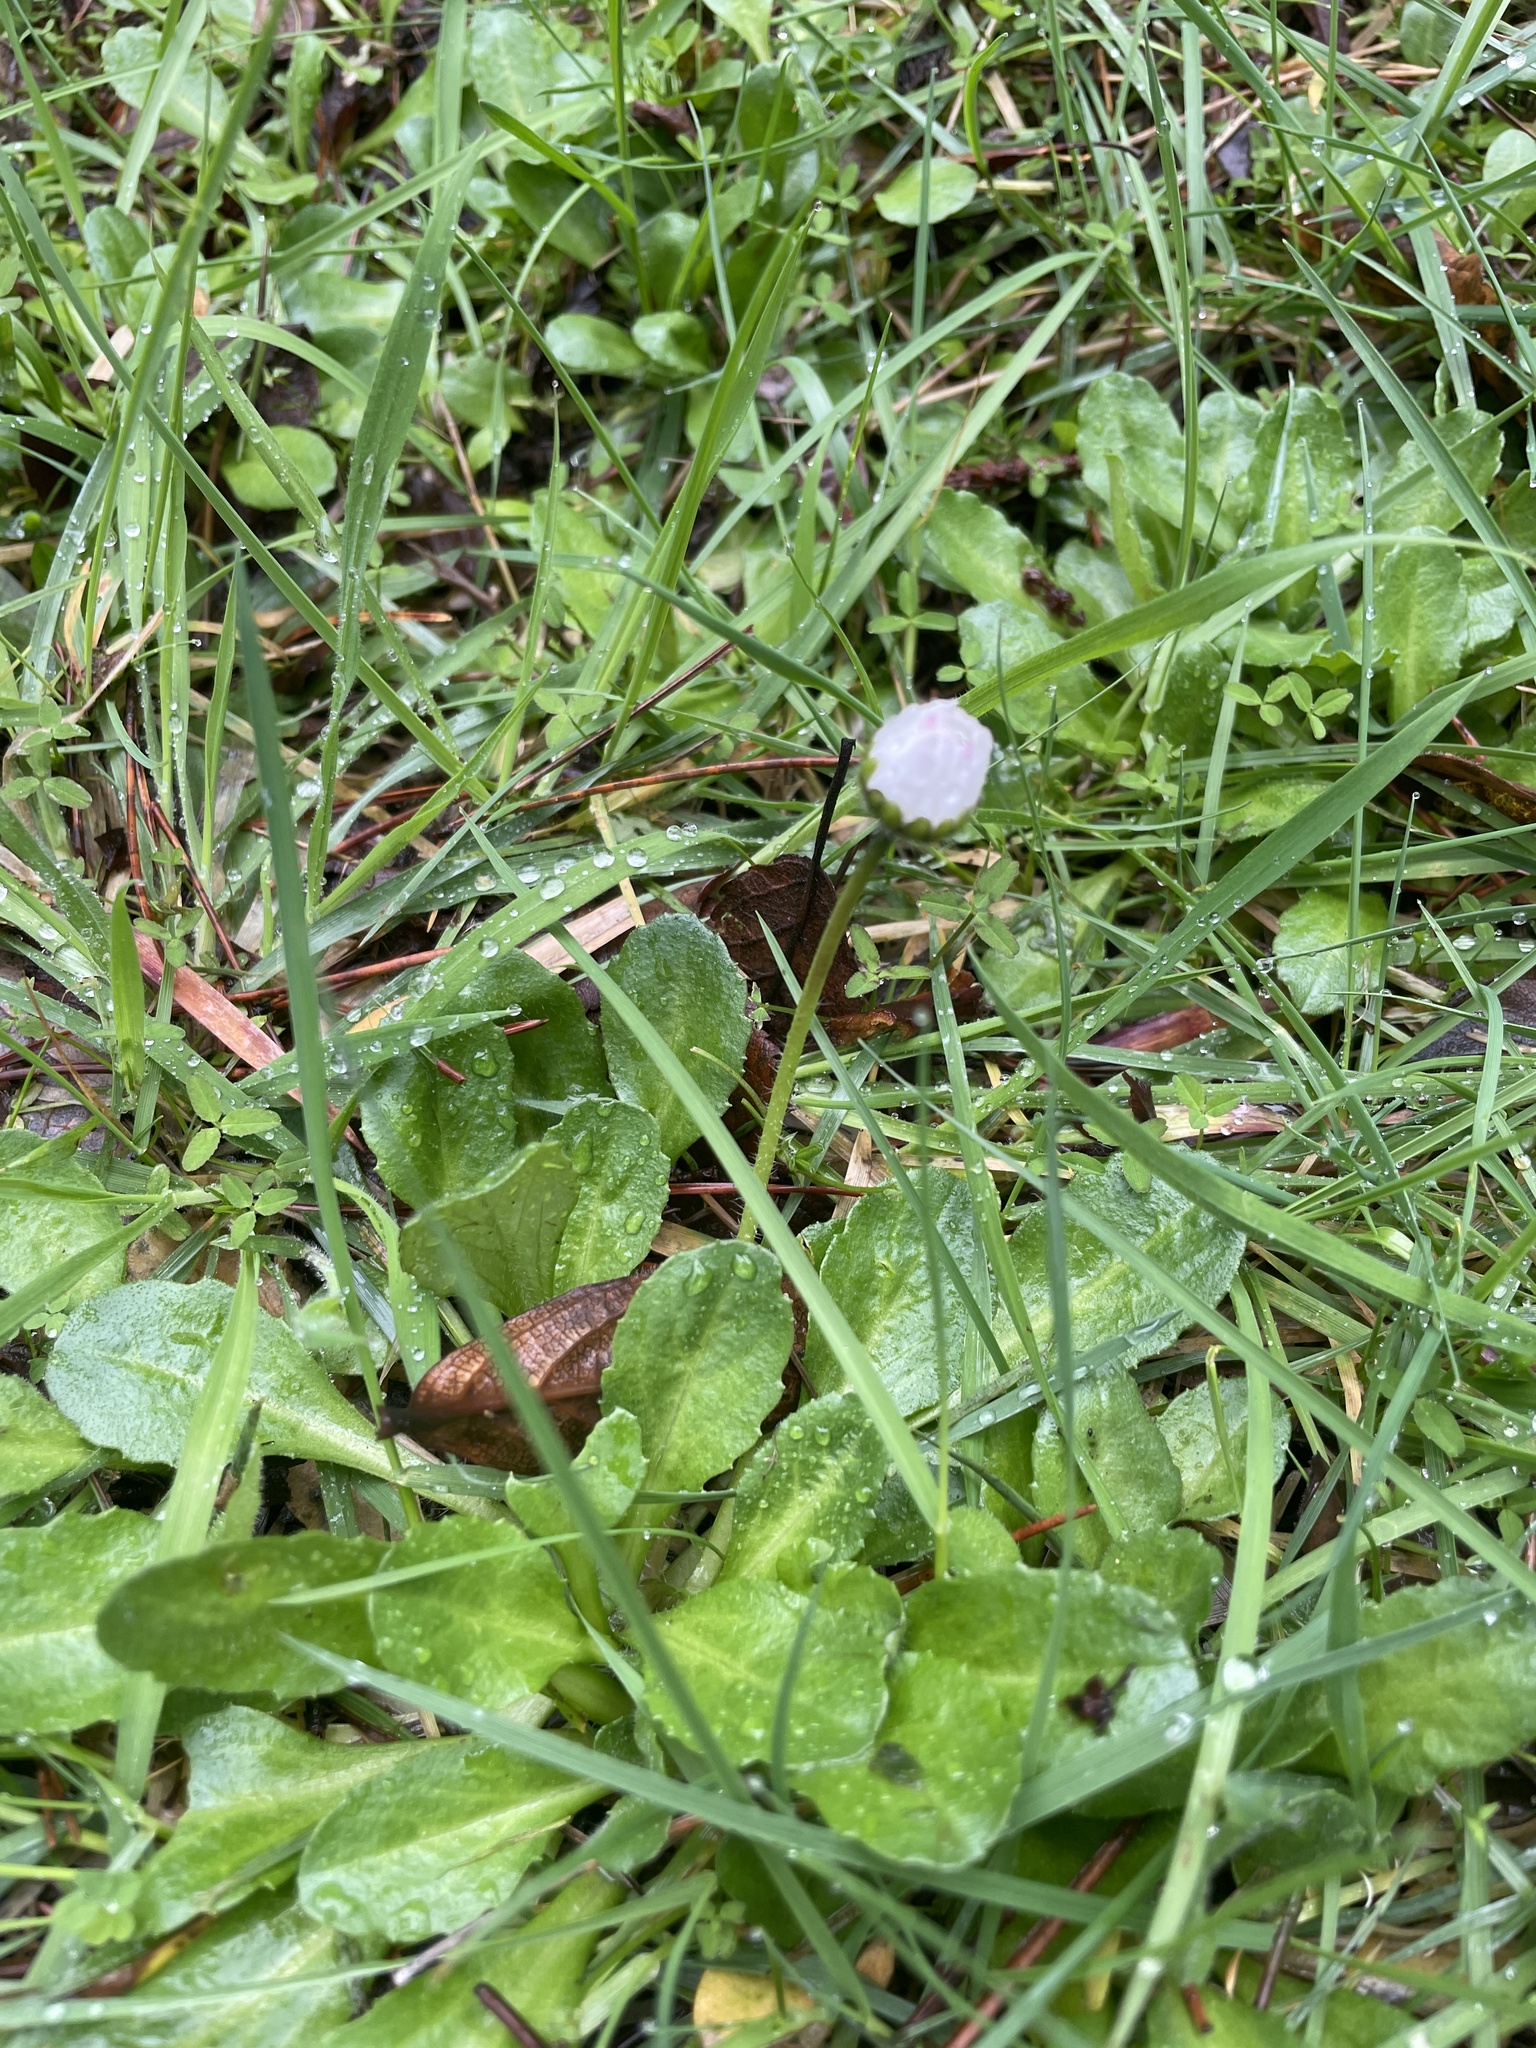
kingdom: Plantae
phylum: Tracheophyta
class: Magnoliopsida
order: Asterales
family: Asteraceae
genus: Bellis
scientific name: Bellis perennis
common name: Lawndaisy
